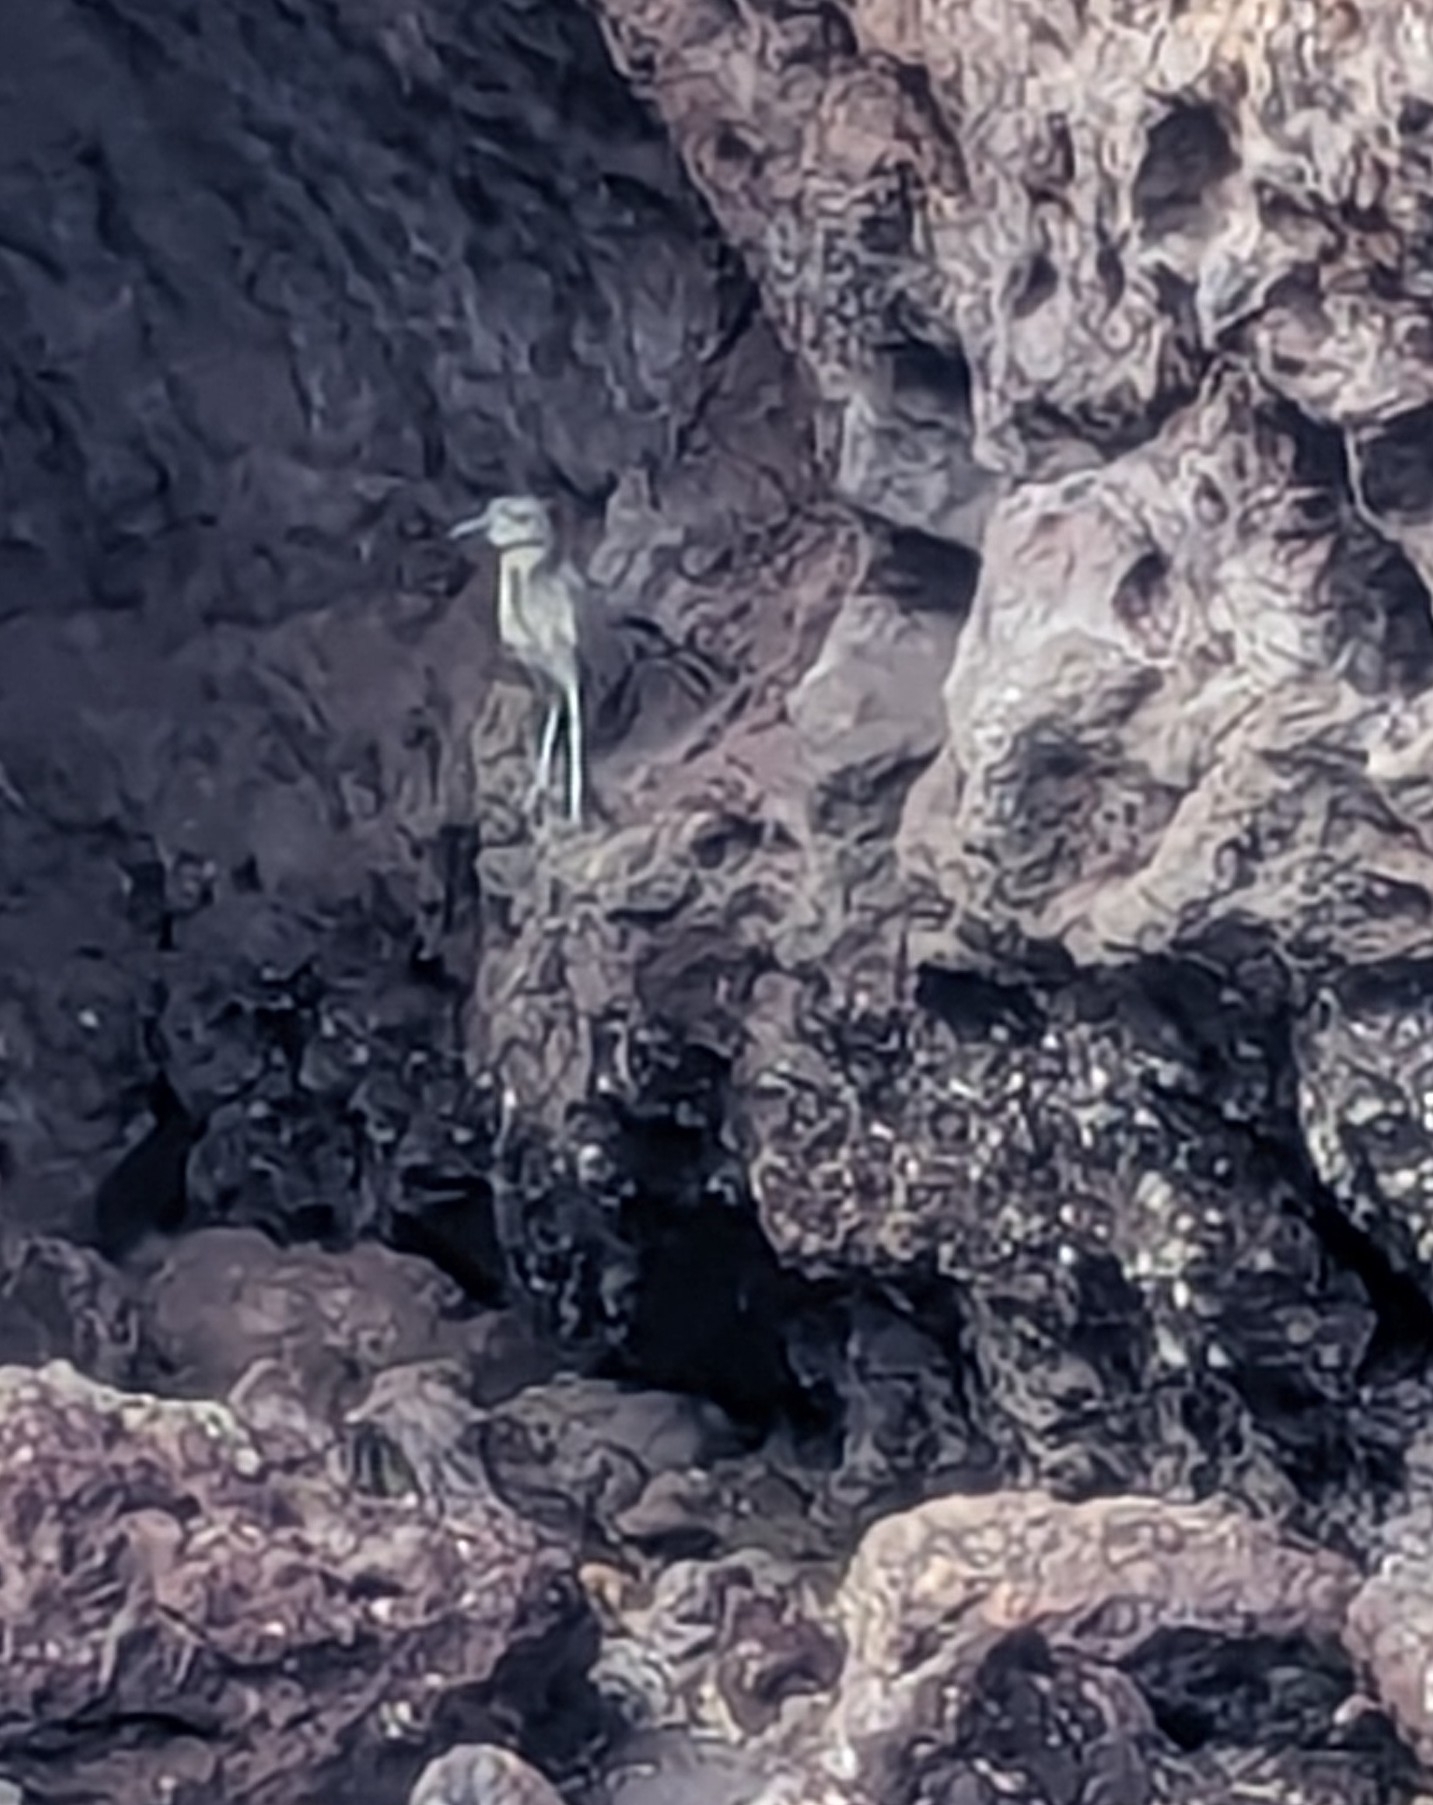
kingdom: Animalia
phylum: Chordata
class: Aves
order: Pelecaniformes
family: Ardeidae
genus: Nyctanassa
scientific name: Nyctanassa violacea
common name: Yellow-crowned night heron
